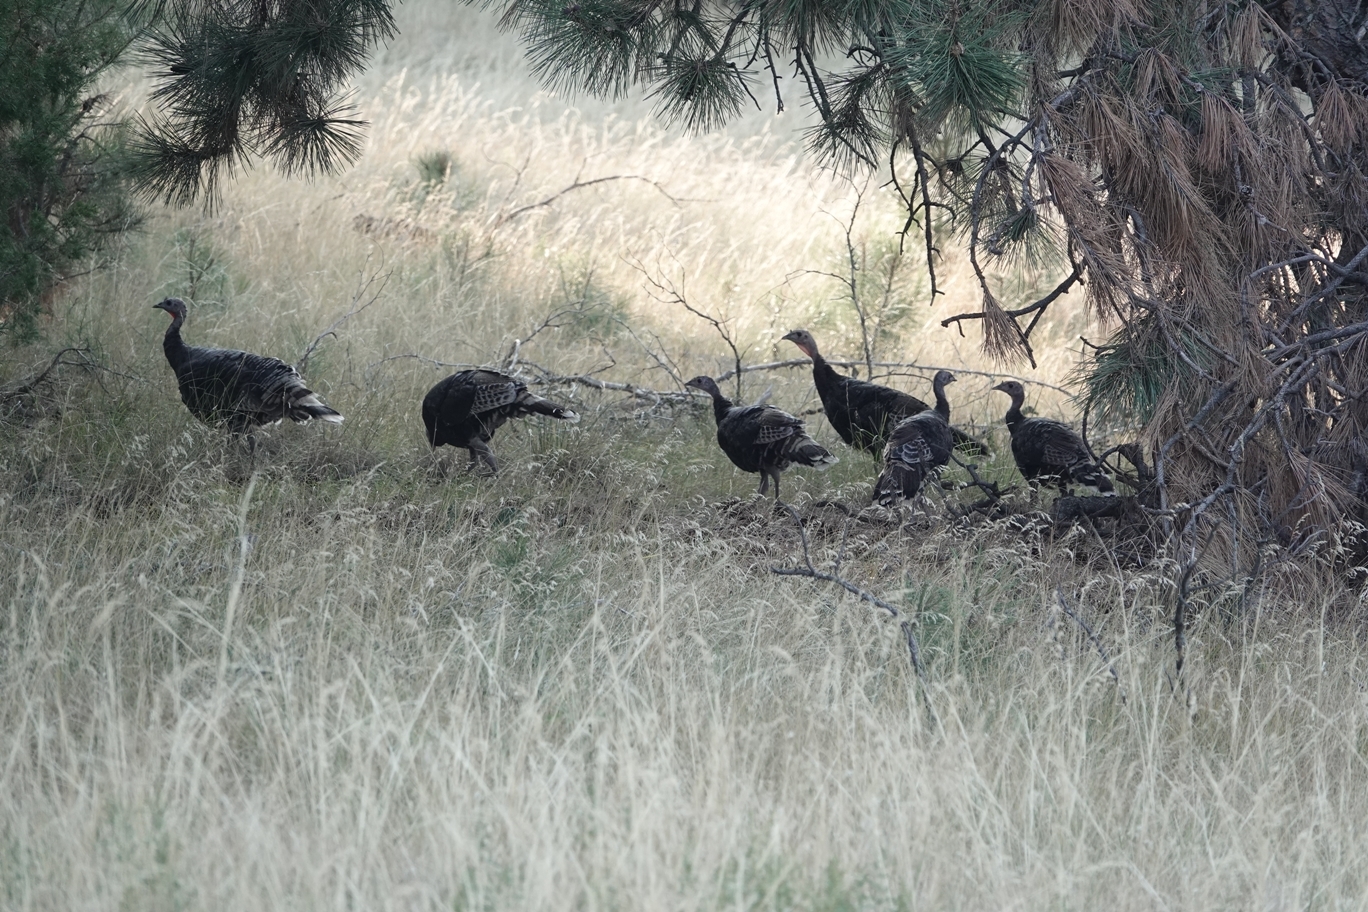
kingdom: Animalia
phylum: Chordata
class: Aves
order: Galliformes
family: Phasianidae
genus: Meleagris
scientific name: Meleagris gallopavo
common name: Wild turkey
